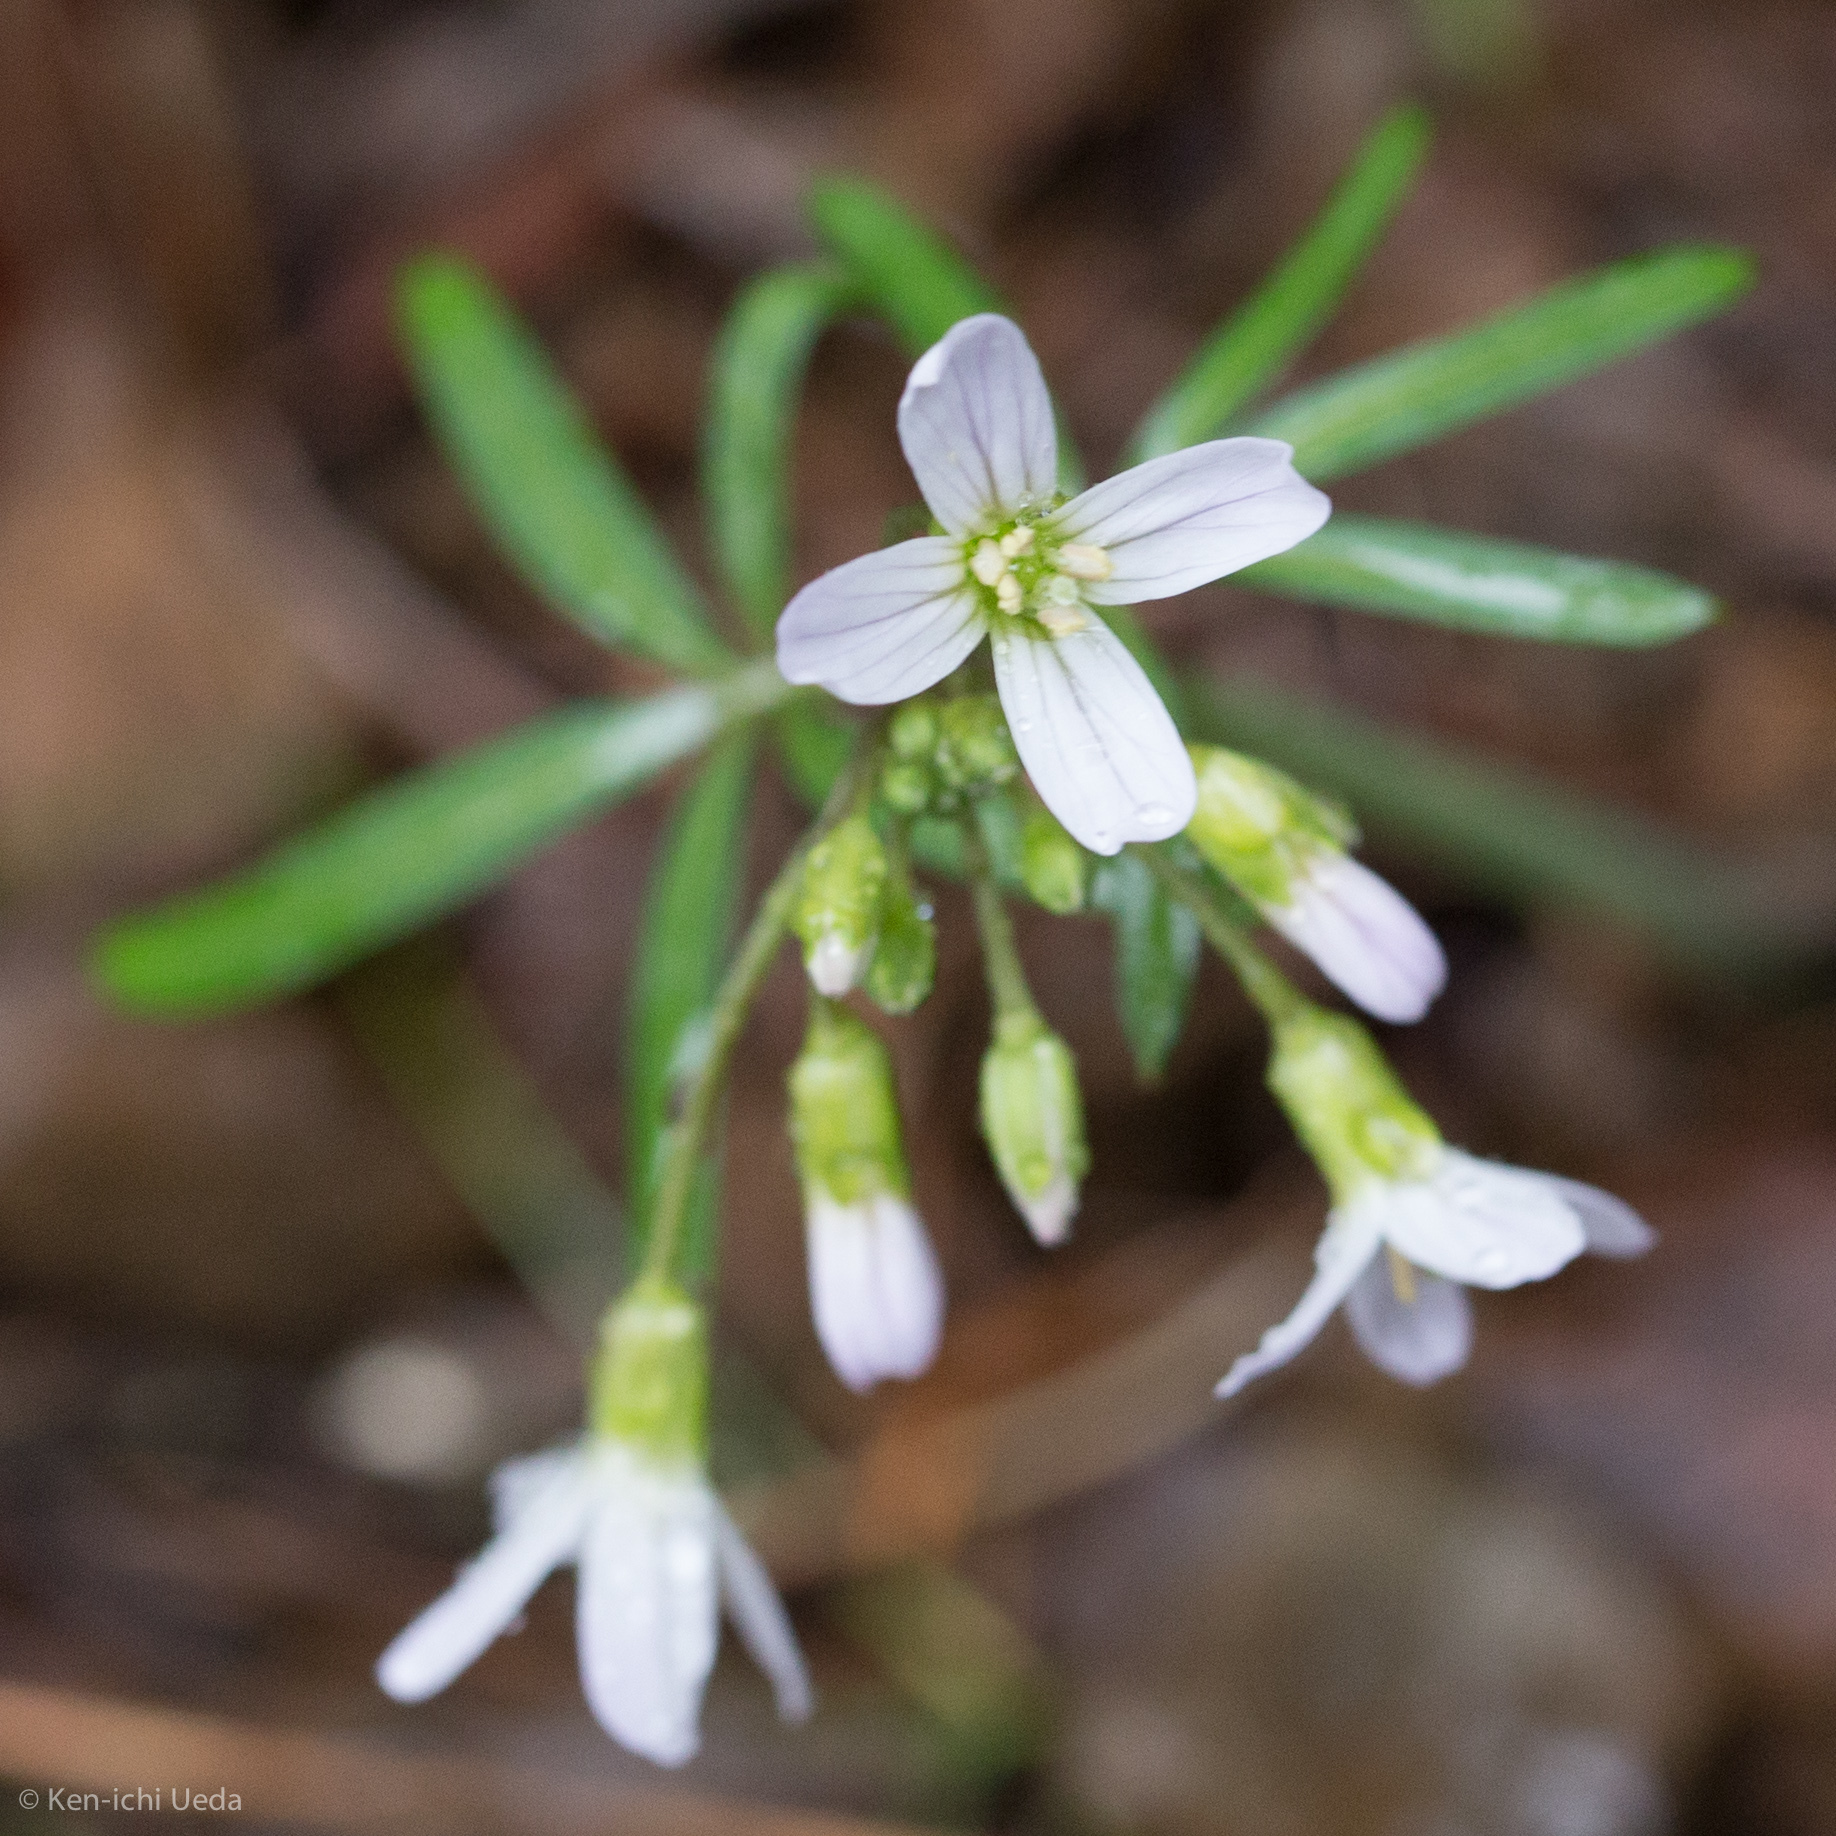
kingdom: Plantae
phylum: Tracheophyta
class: Magnoliopsida
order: Brassicales
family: Brassicaceae
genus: Cardamine
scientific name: Cardamine californica
